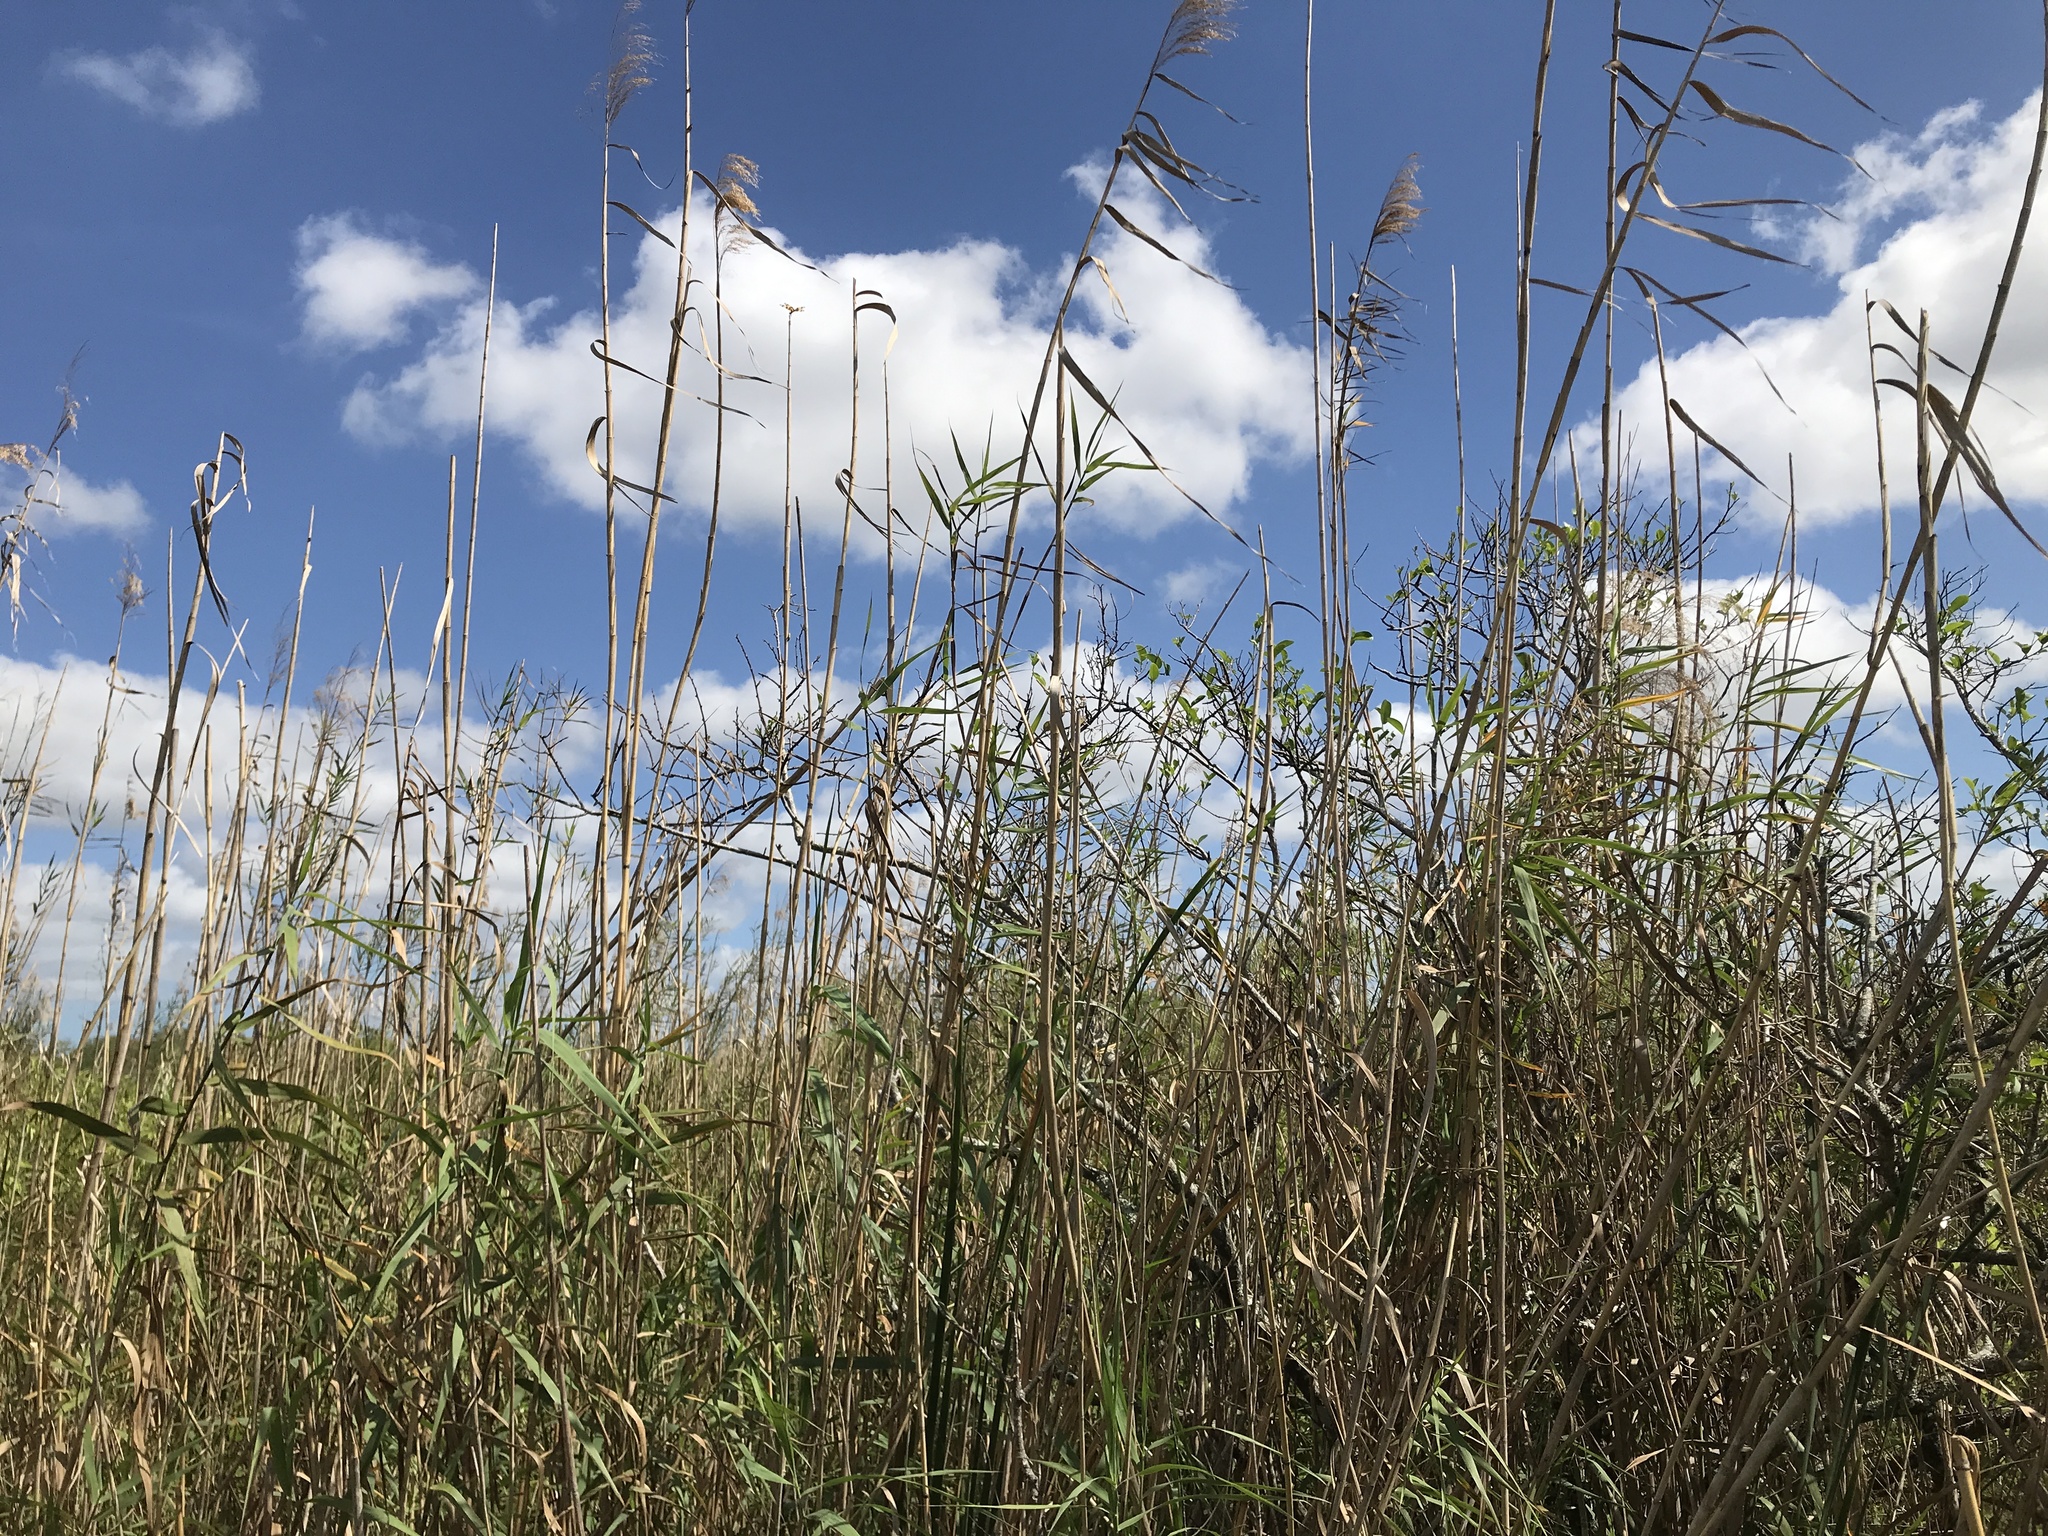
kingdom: Plantae
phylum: Tracheophyta
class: Liliopsida
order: Poales
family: Poaceae
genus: Phragmites
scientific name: Phragmites australis
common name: Common reed
